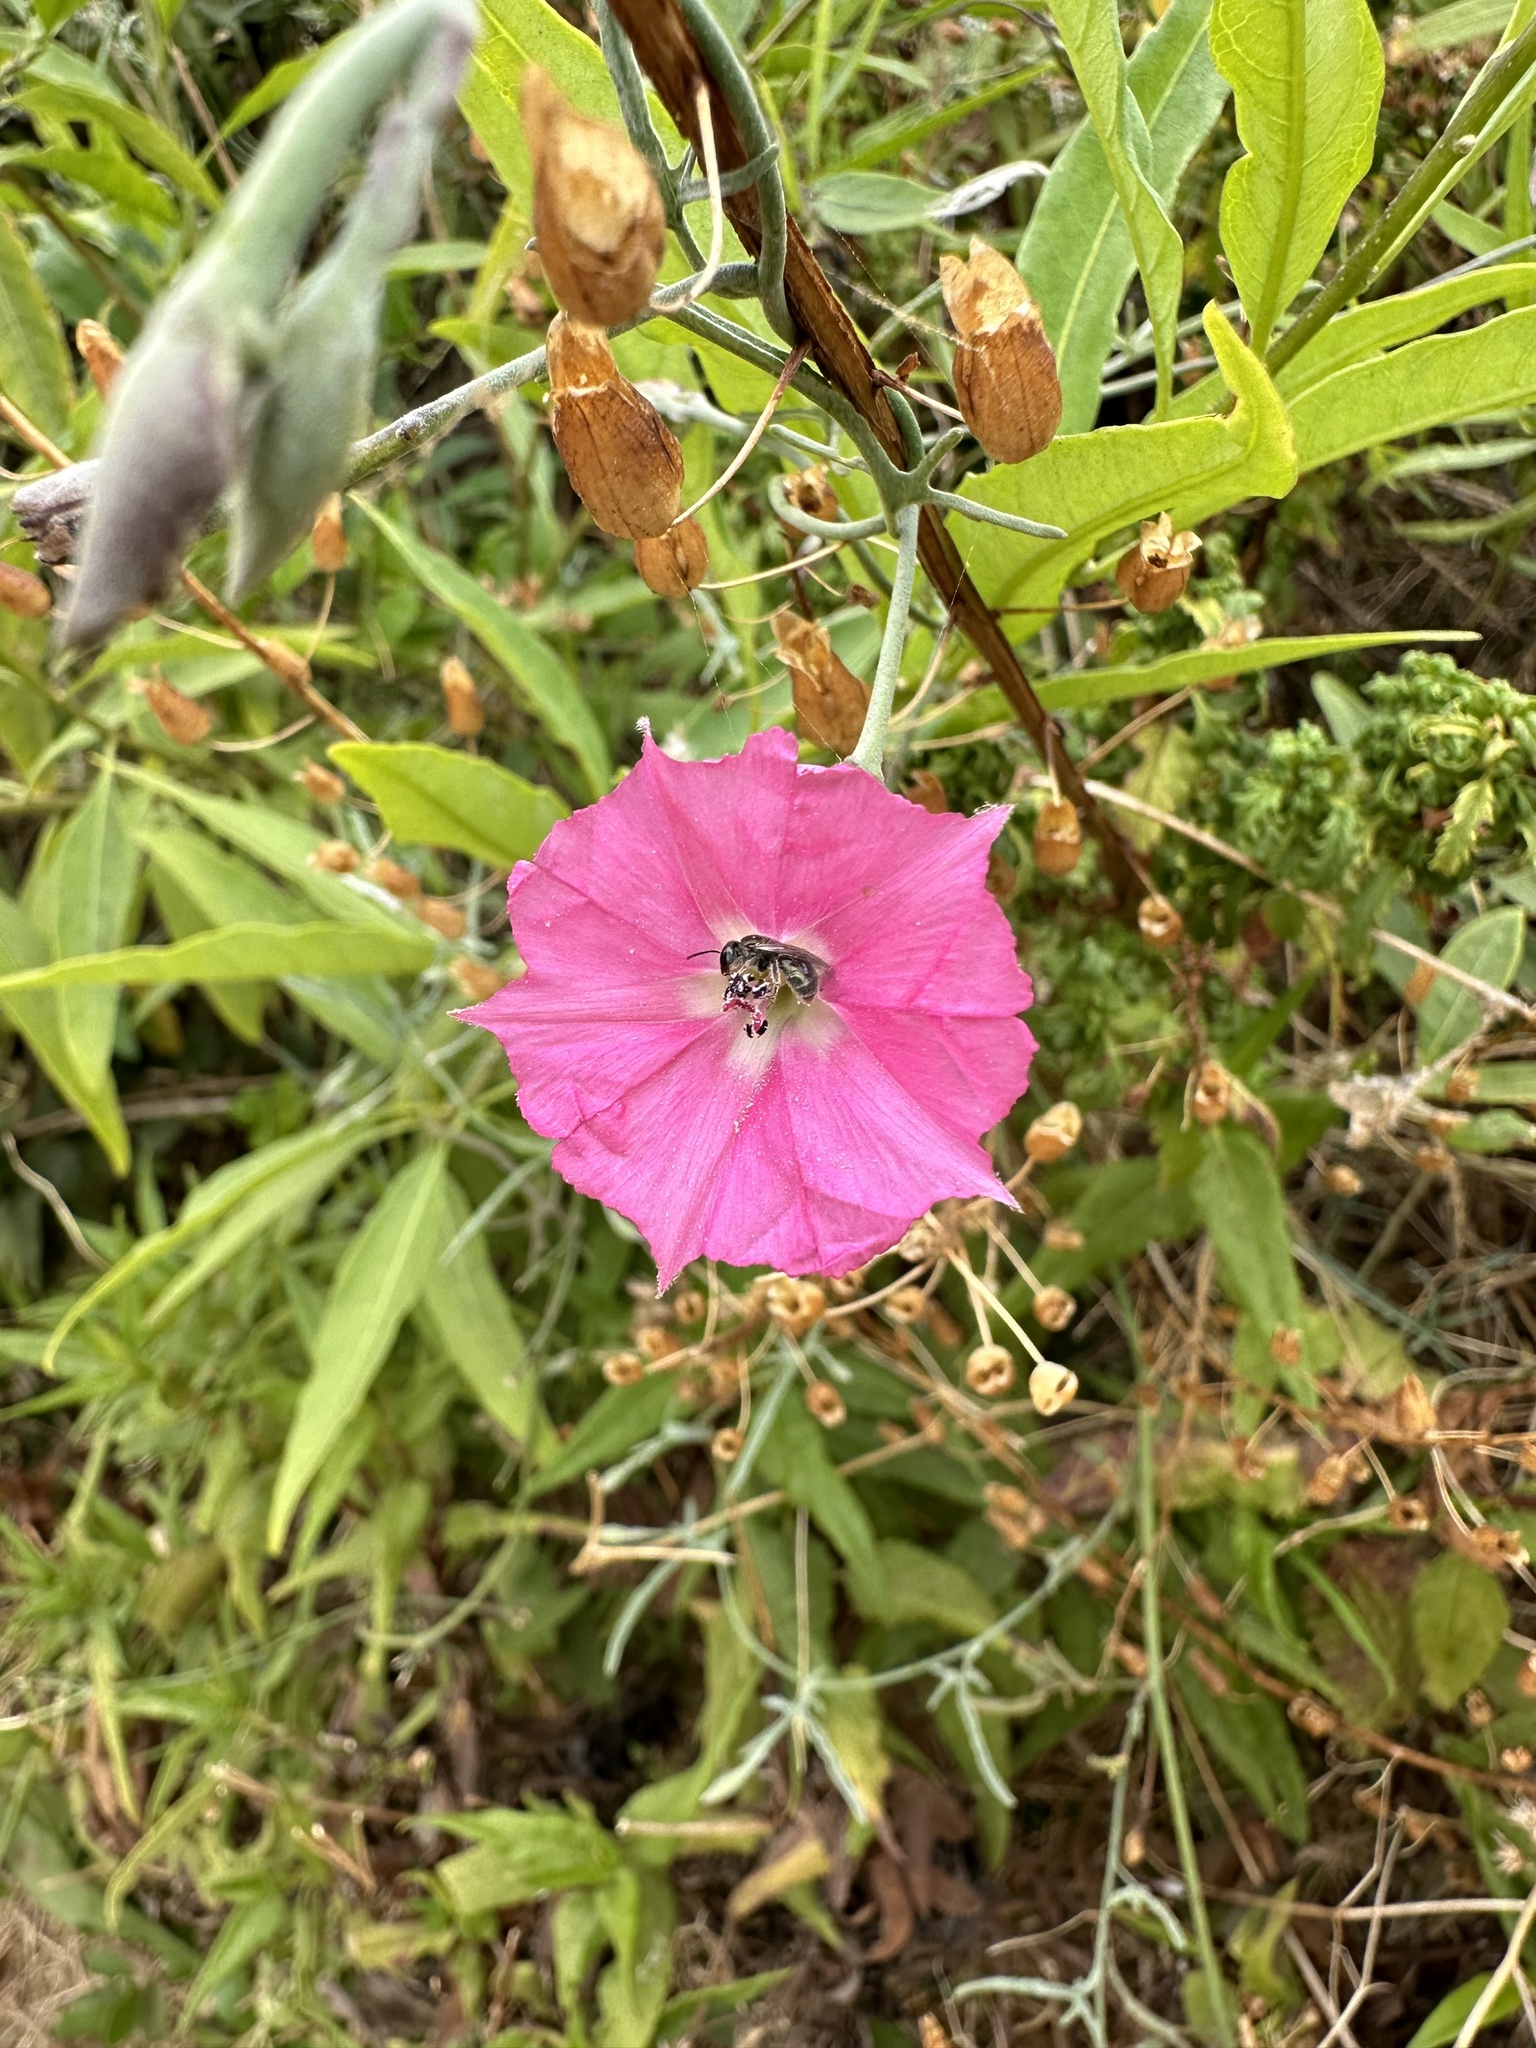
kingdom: Plantae
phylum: Tracheophyta
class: Magnoliopsida
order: Solanales
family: Convolvulaceae
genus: Convolvulus
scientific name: Convolvulus chilensis
